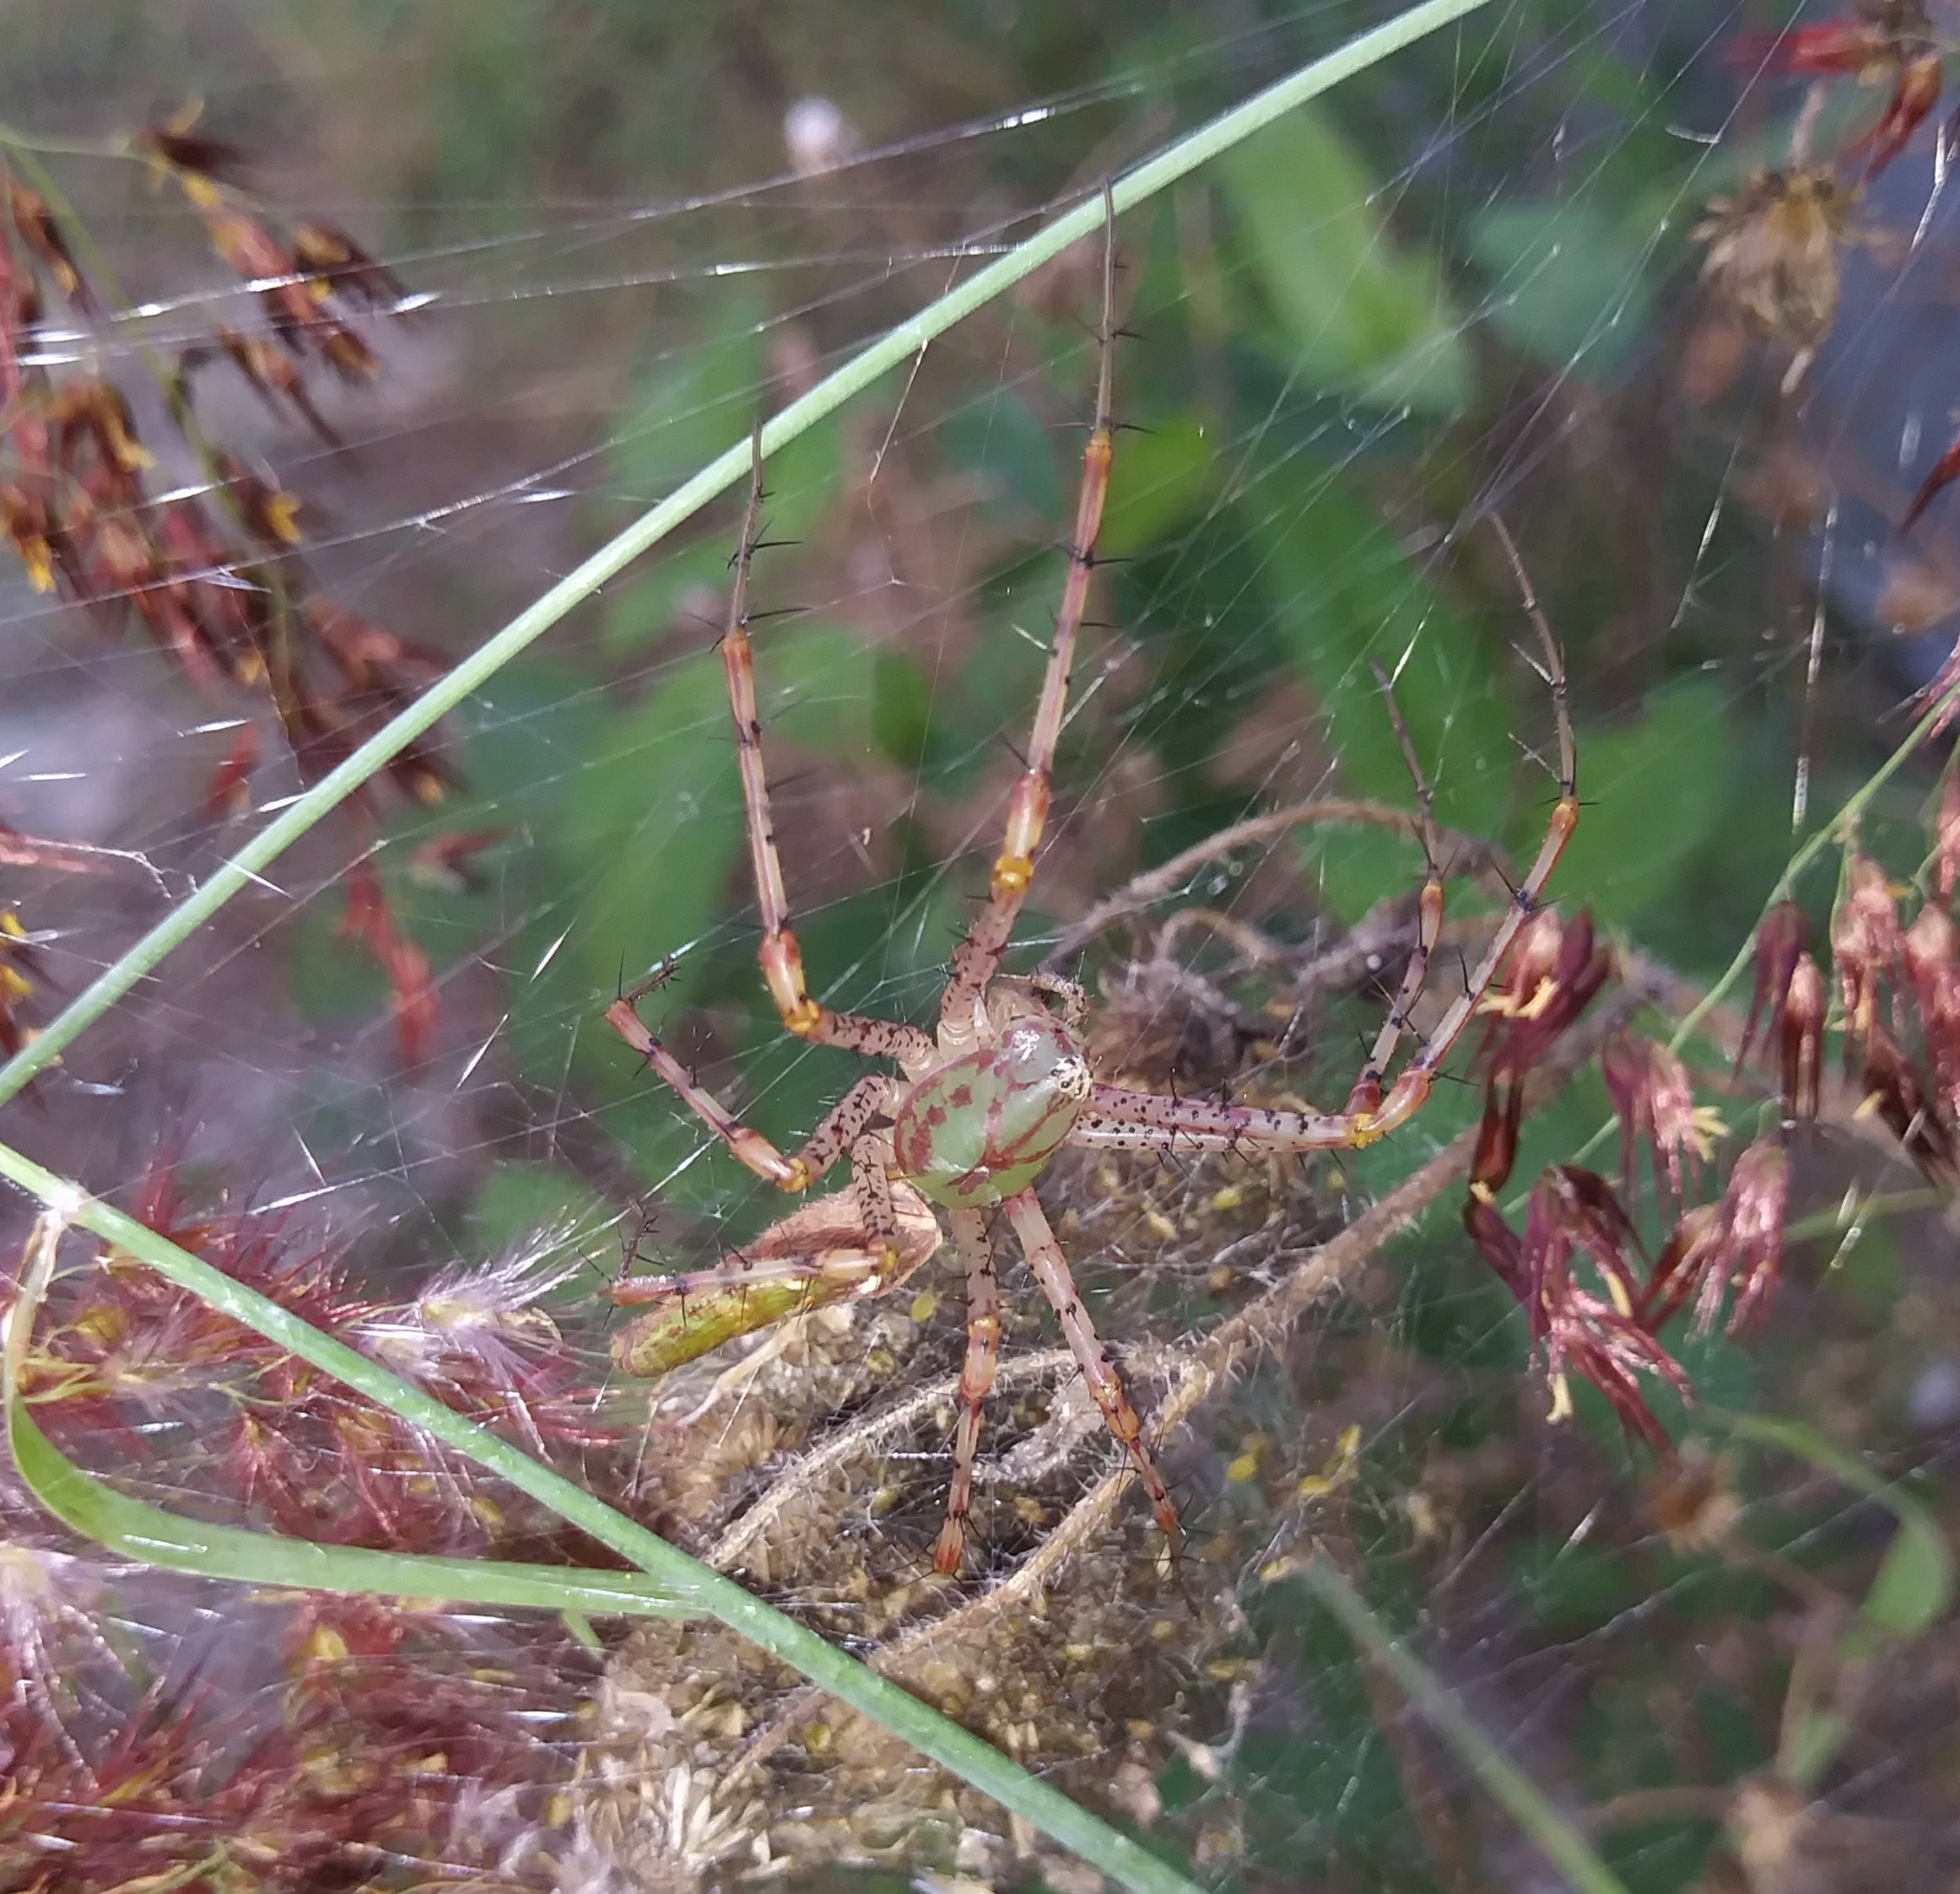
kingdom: Animalia
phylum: Arthropoda
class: Arachnida
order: Araneae
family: Oxyopidae
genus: Peucetia
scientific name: Peucetia viridans
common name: Lynx spiders
